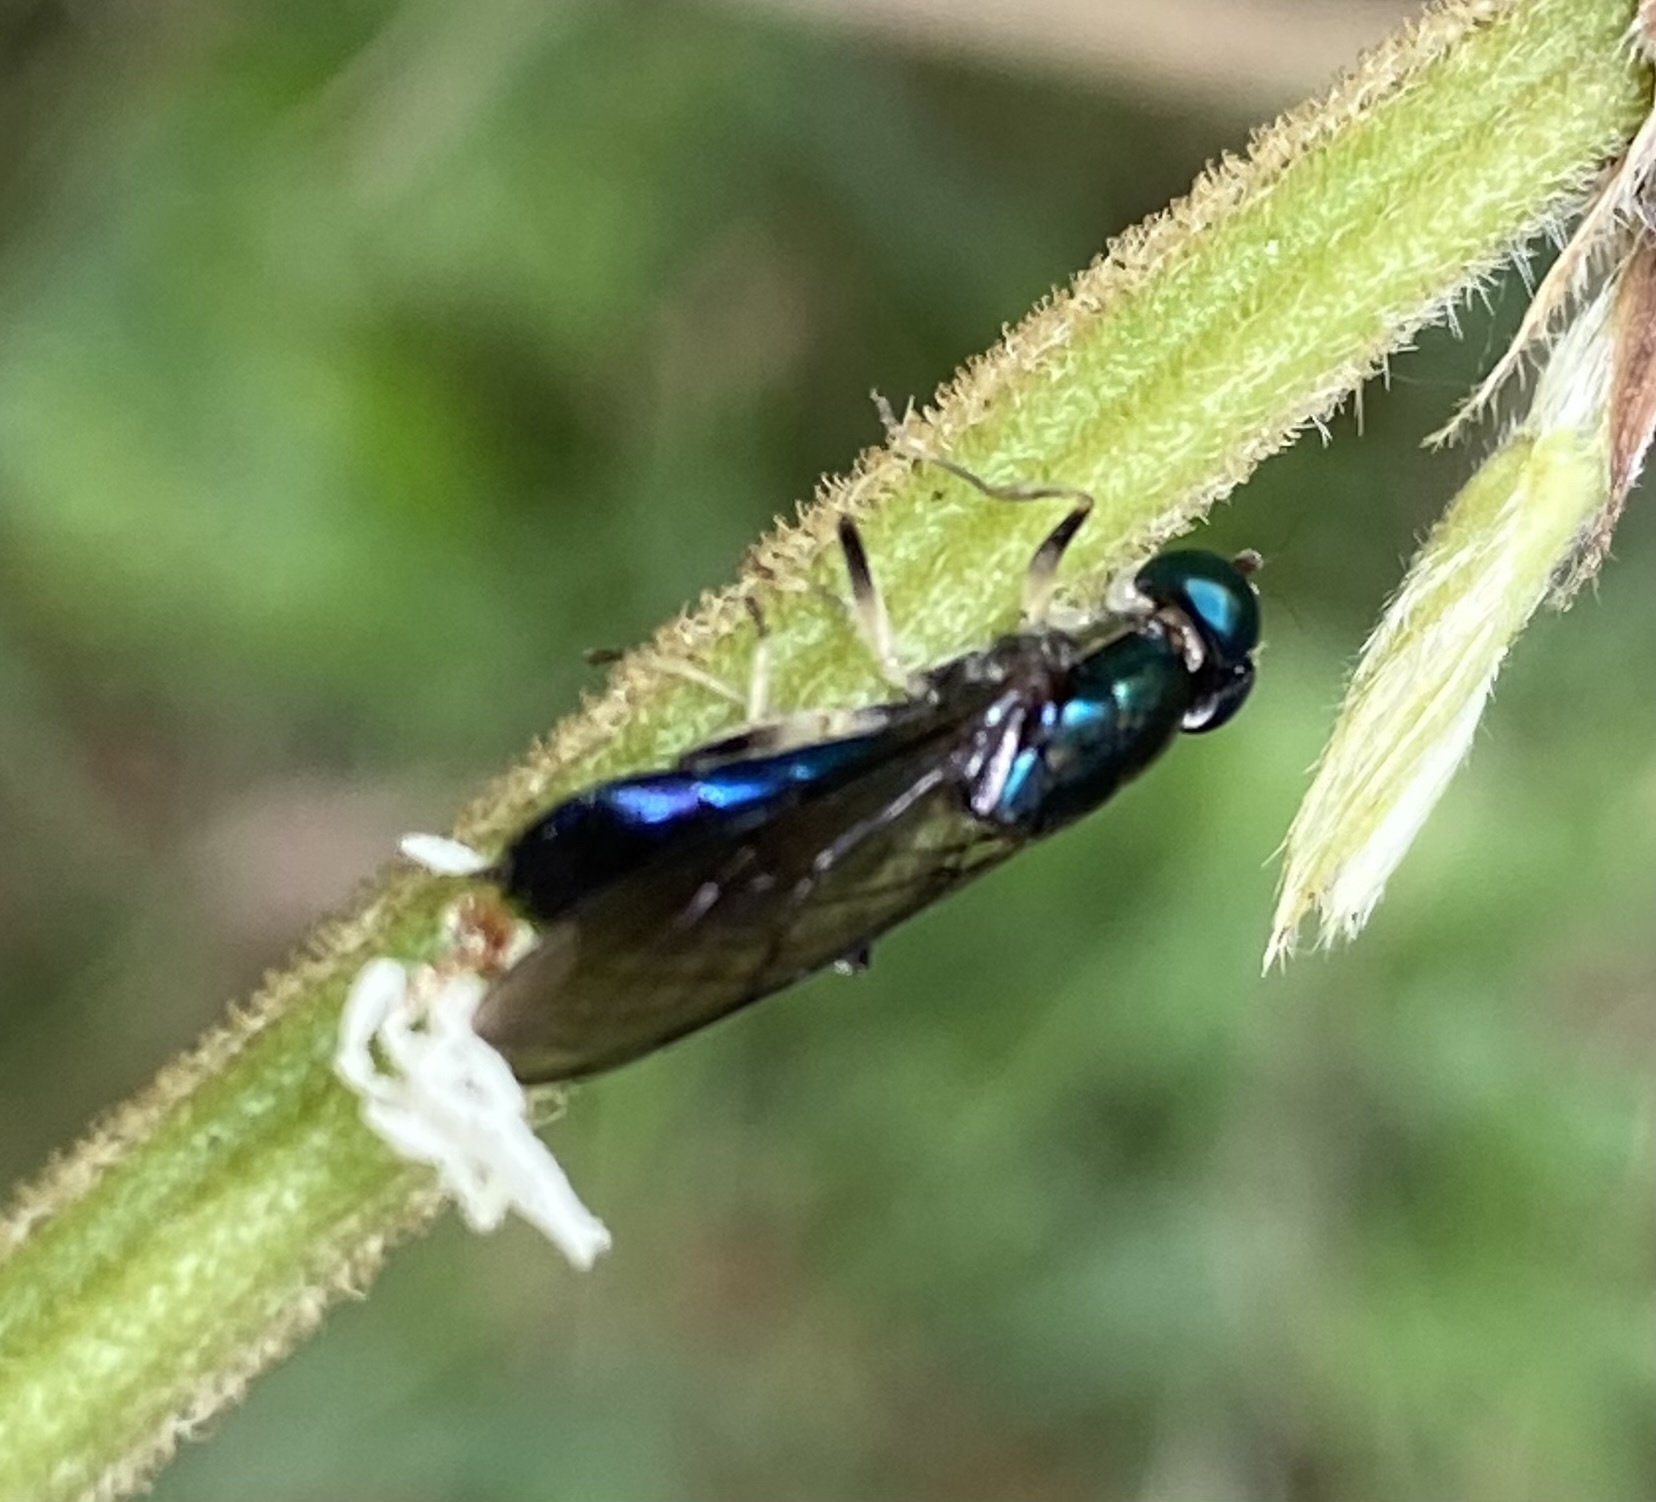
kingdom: Animalia
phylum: Arthropoda
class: Insecta
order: Diptera
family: Stratiomyidae
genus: Himantigera
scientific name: Himantigera nigrifemorata
